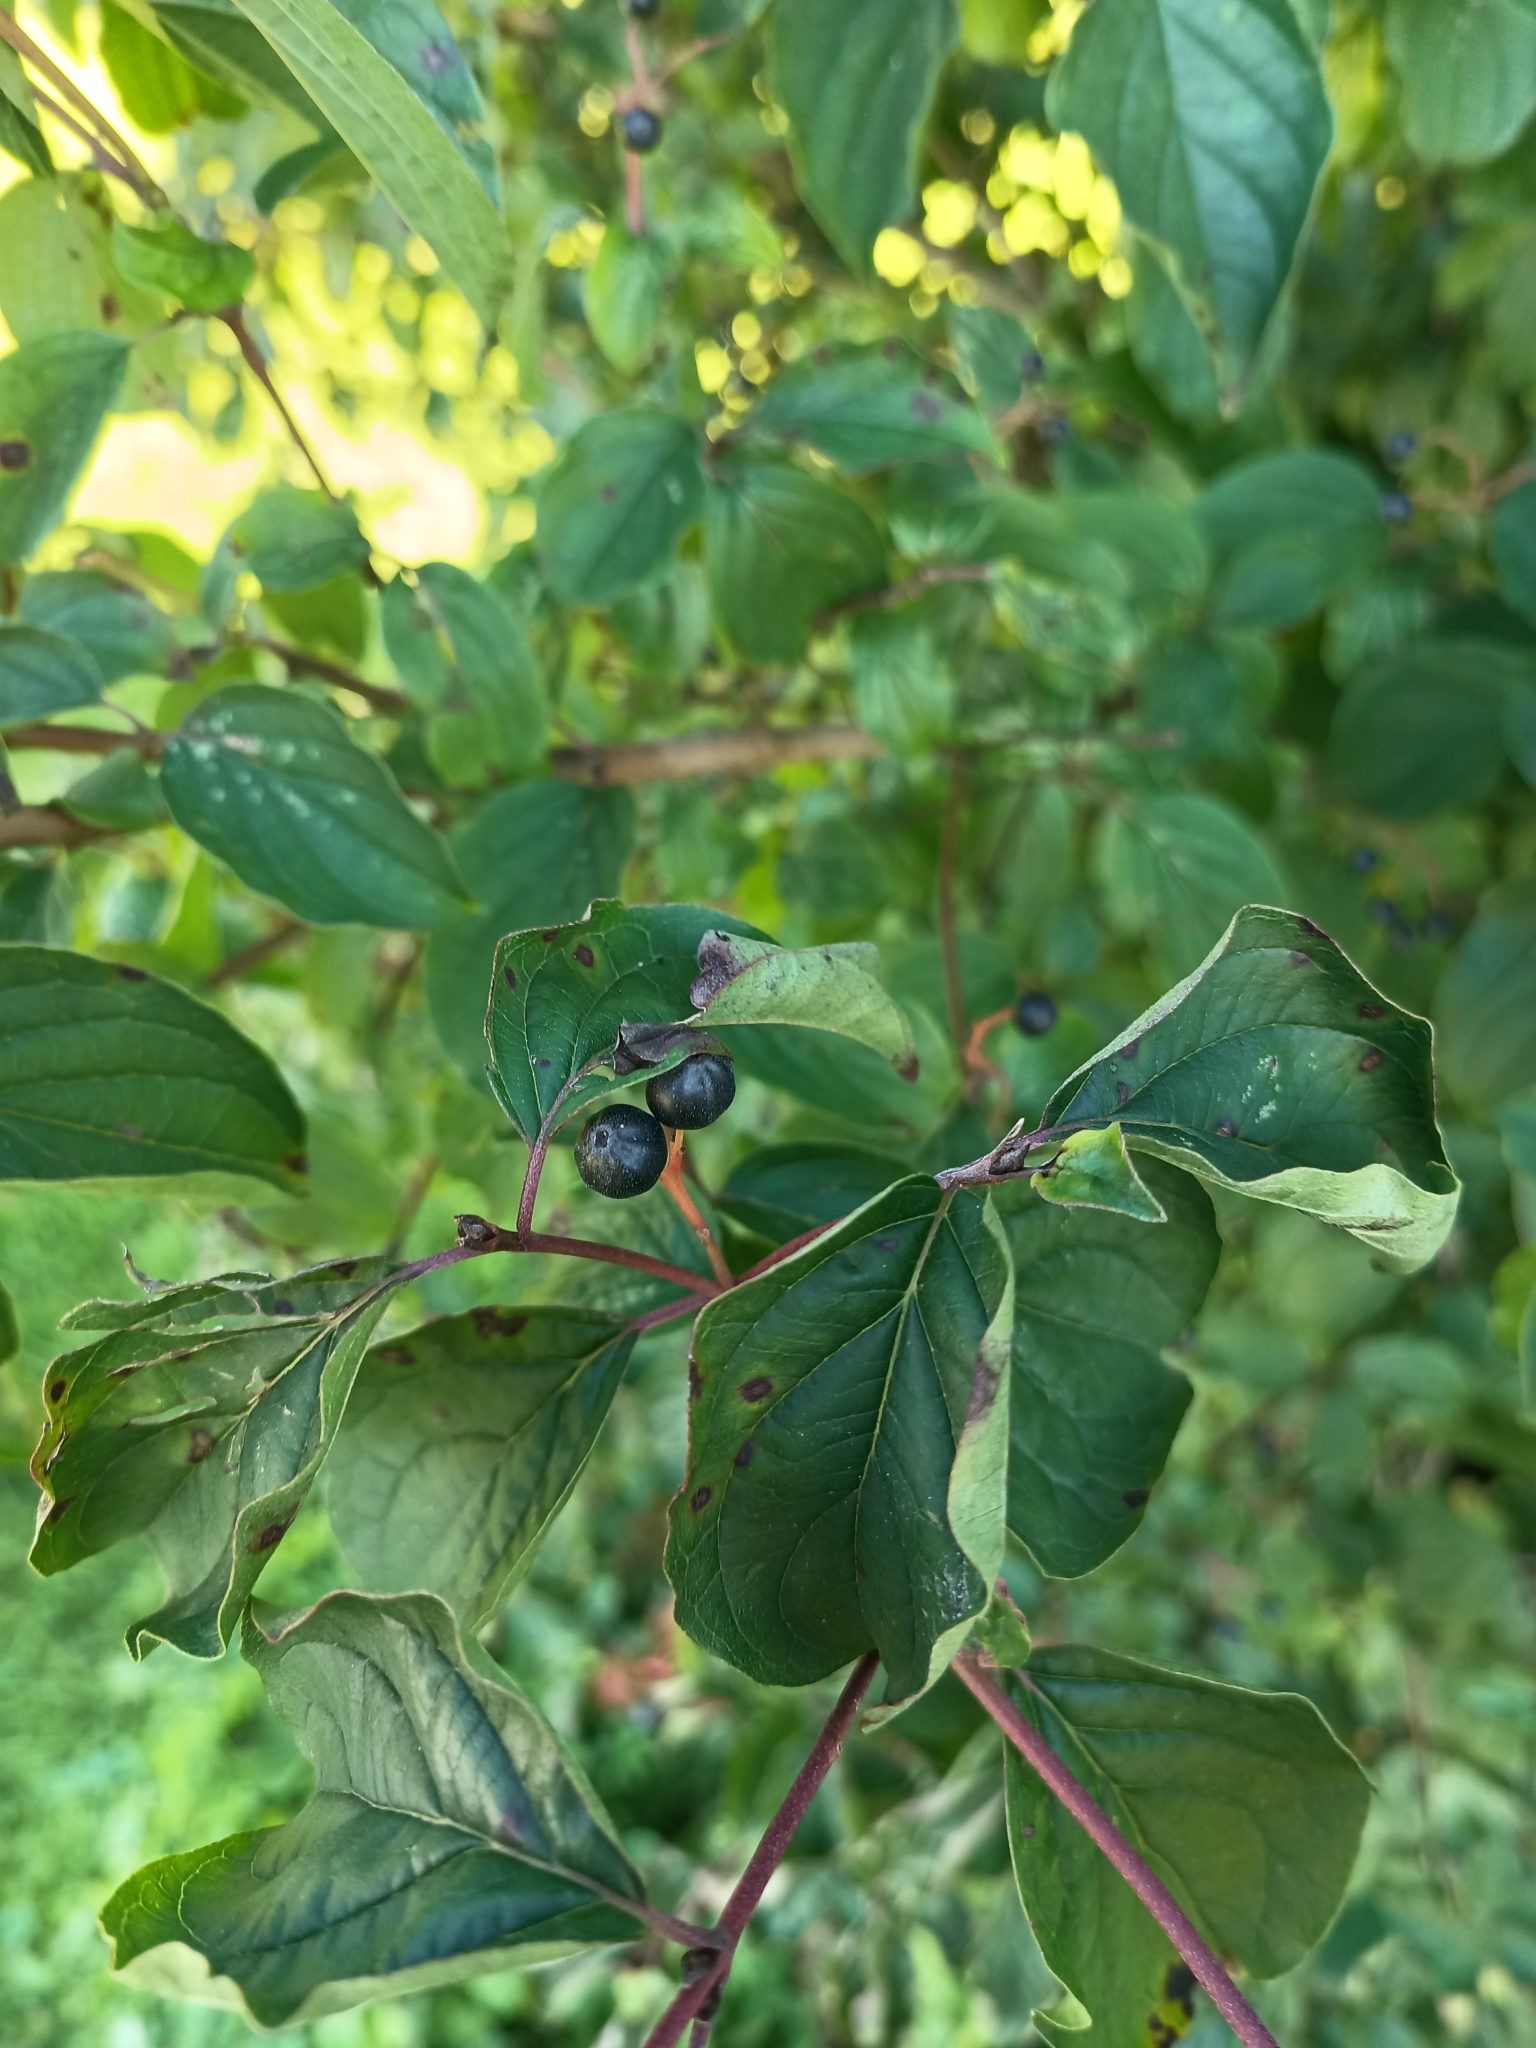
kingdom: Plantae
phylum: Tracheophyta
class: Magnoliopsida
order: Cornales
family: Cornaceae
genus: Cornus
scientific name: Cornus sanguinea
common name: Dogwood
